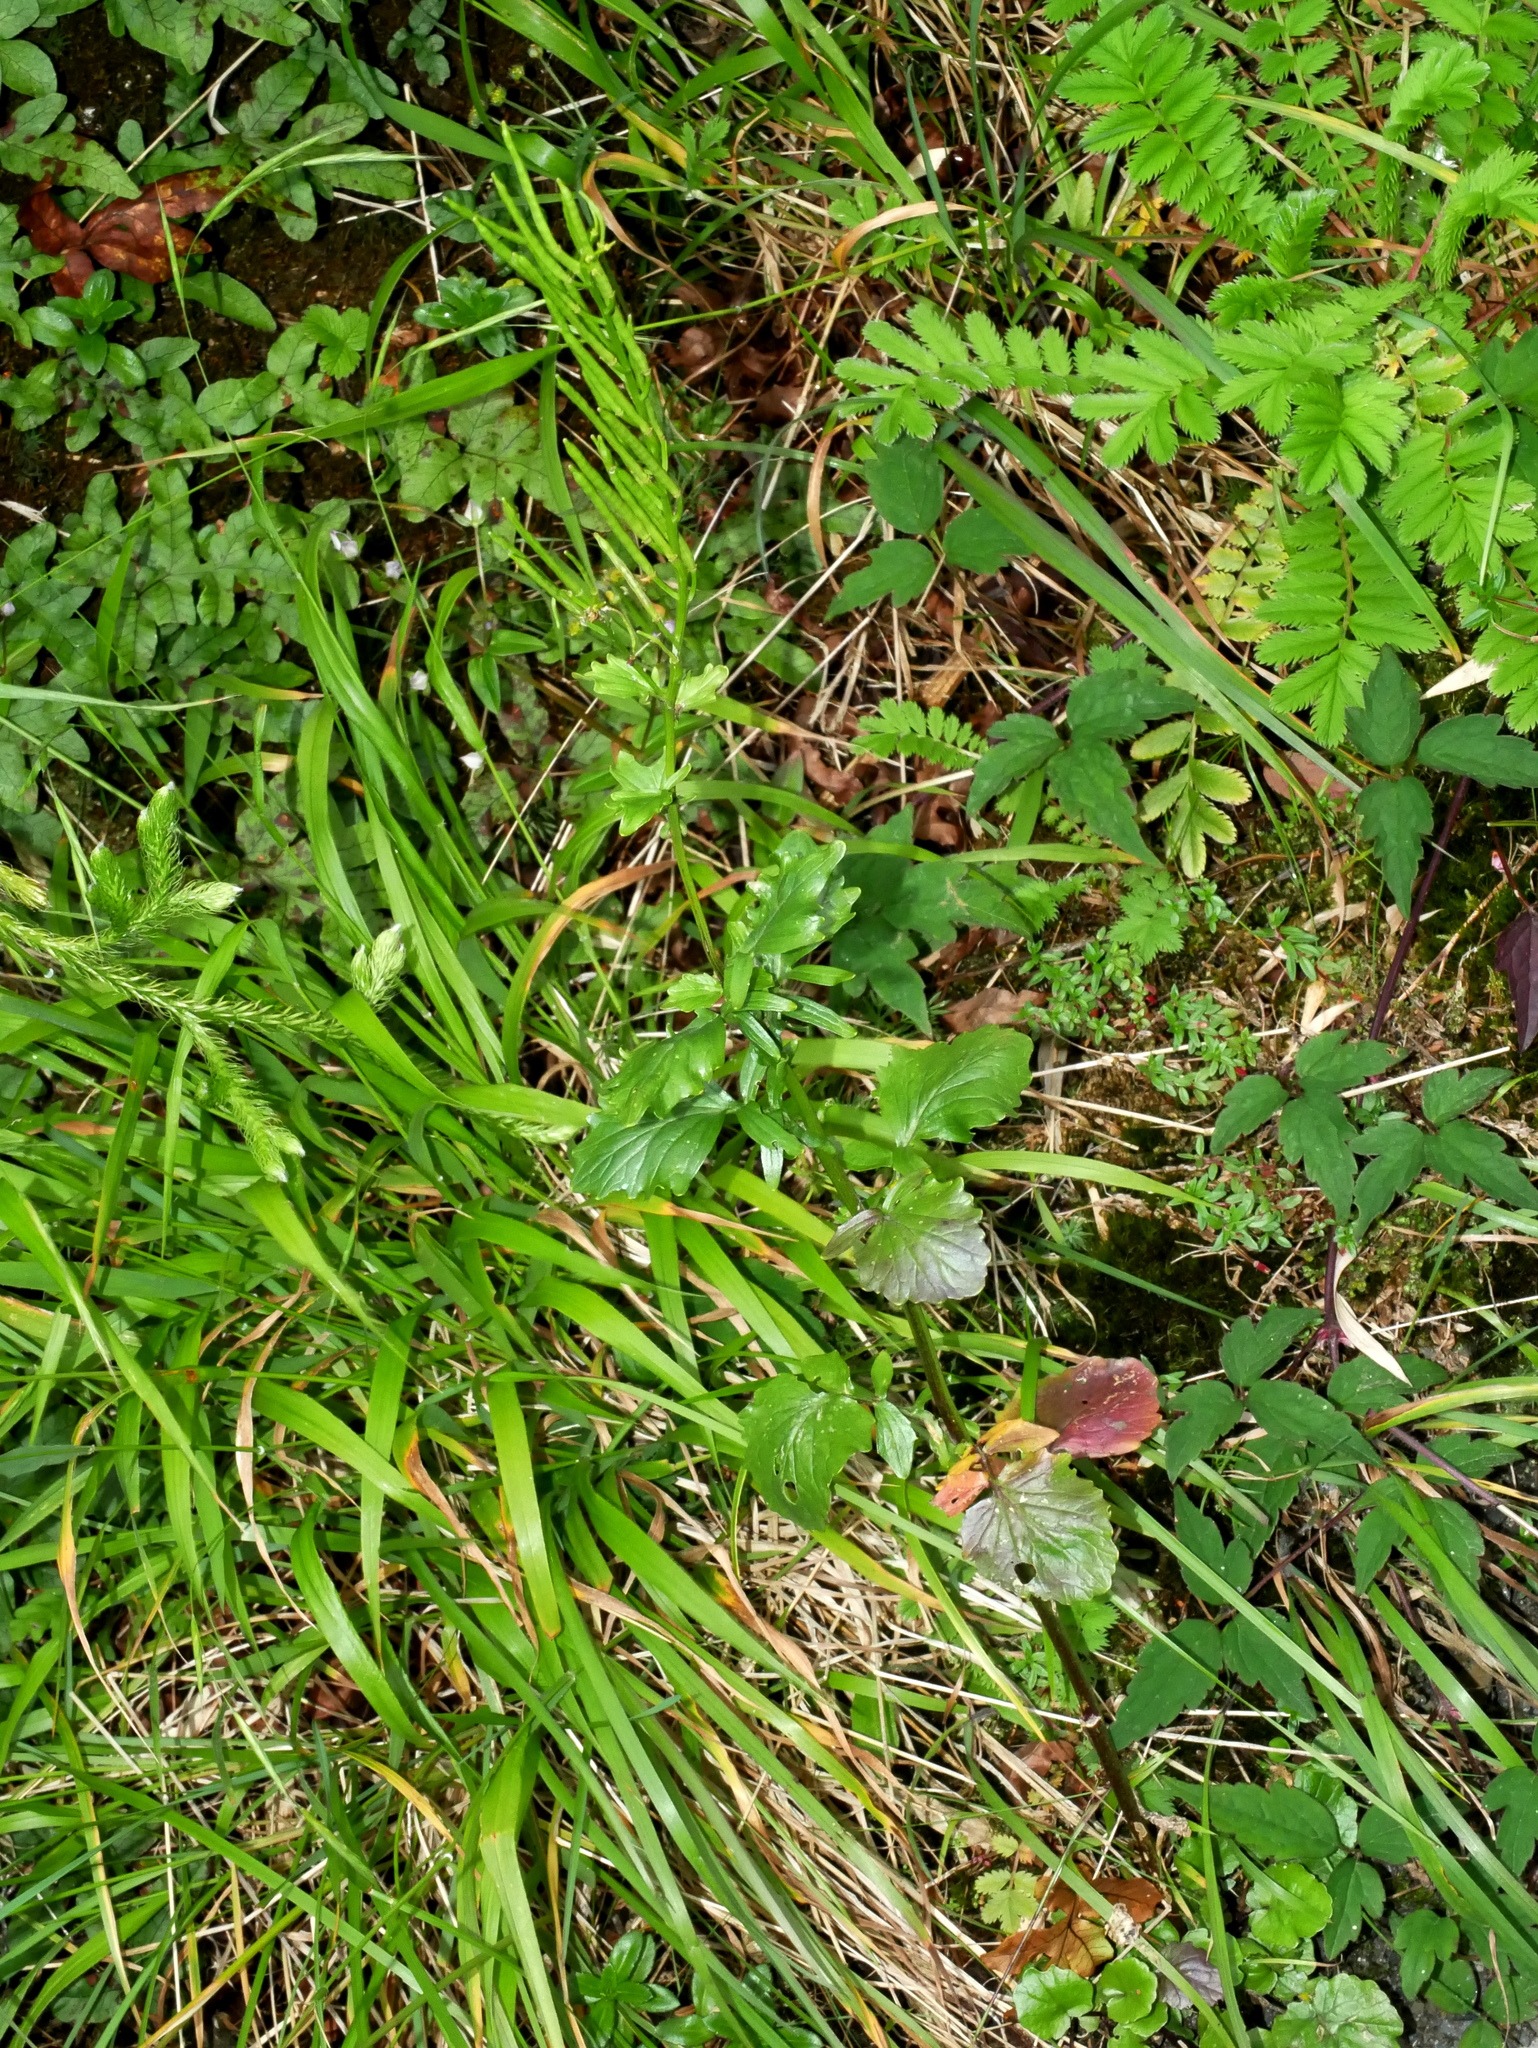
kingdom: Plantae
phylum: Tracheophyta
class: Magnoliopsida
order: Brassicales
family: Brassicaceae
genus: Barbarea
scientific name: Barbarea orthoceras
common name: American wintercress
